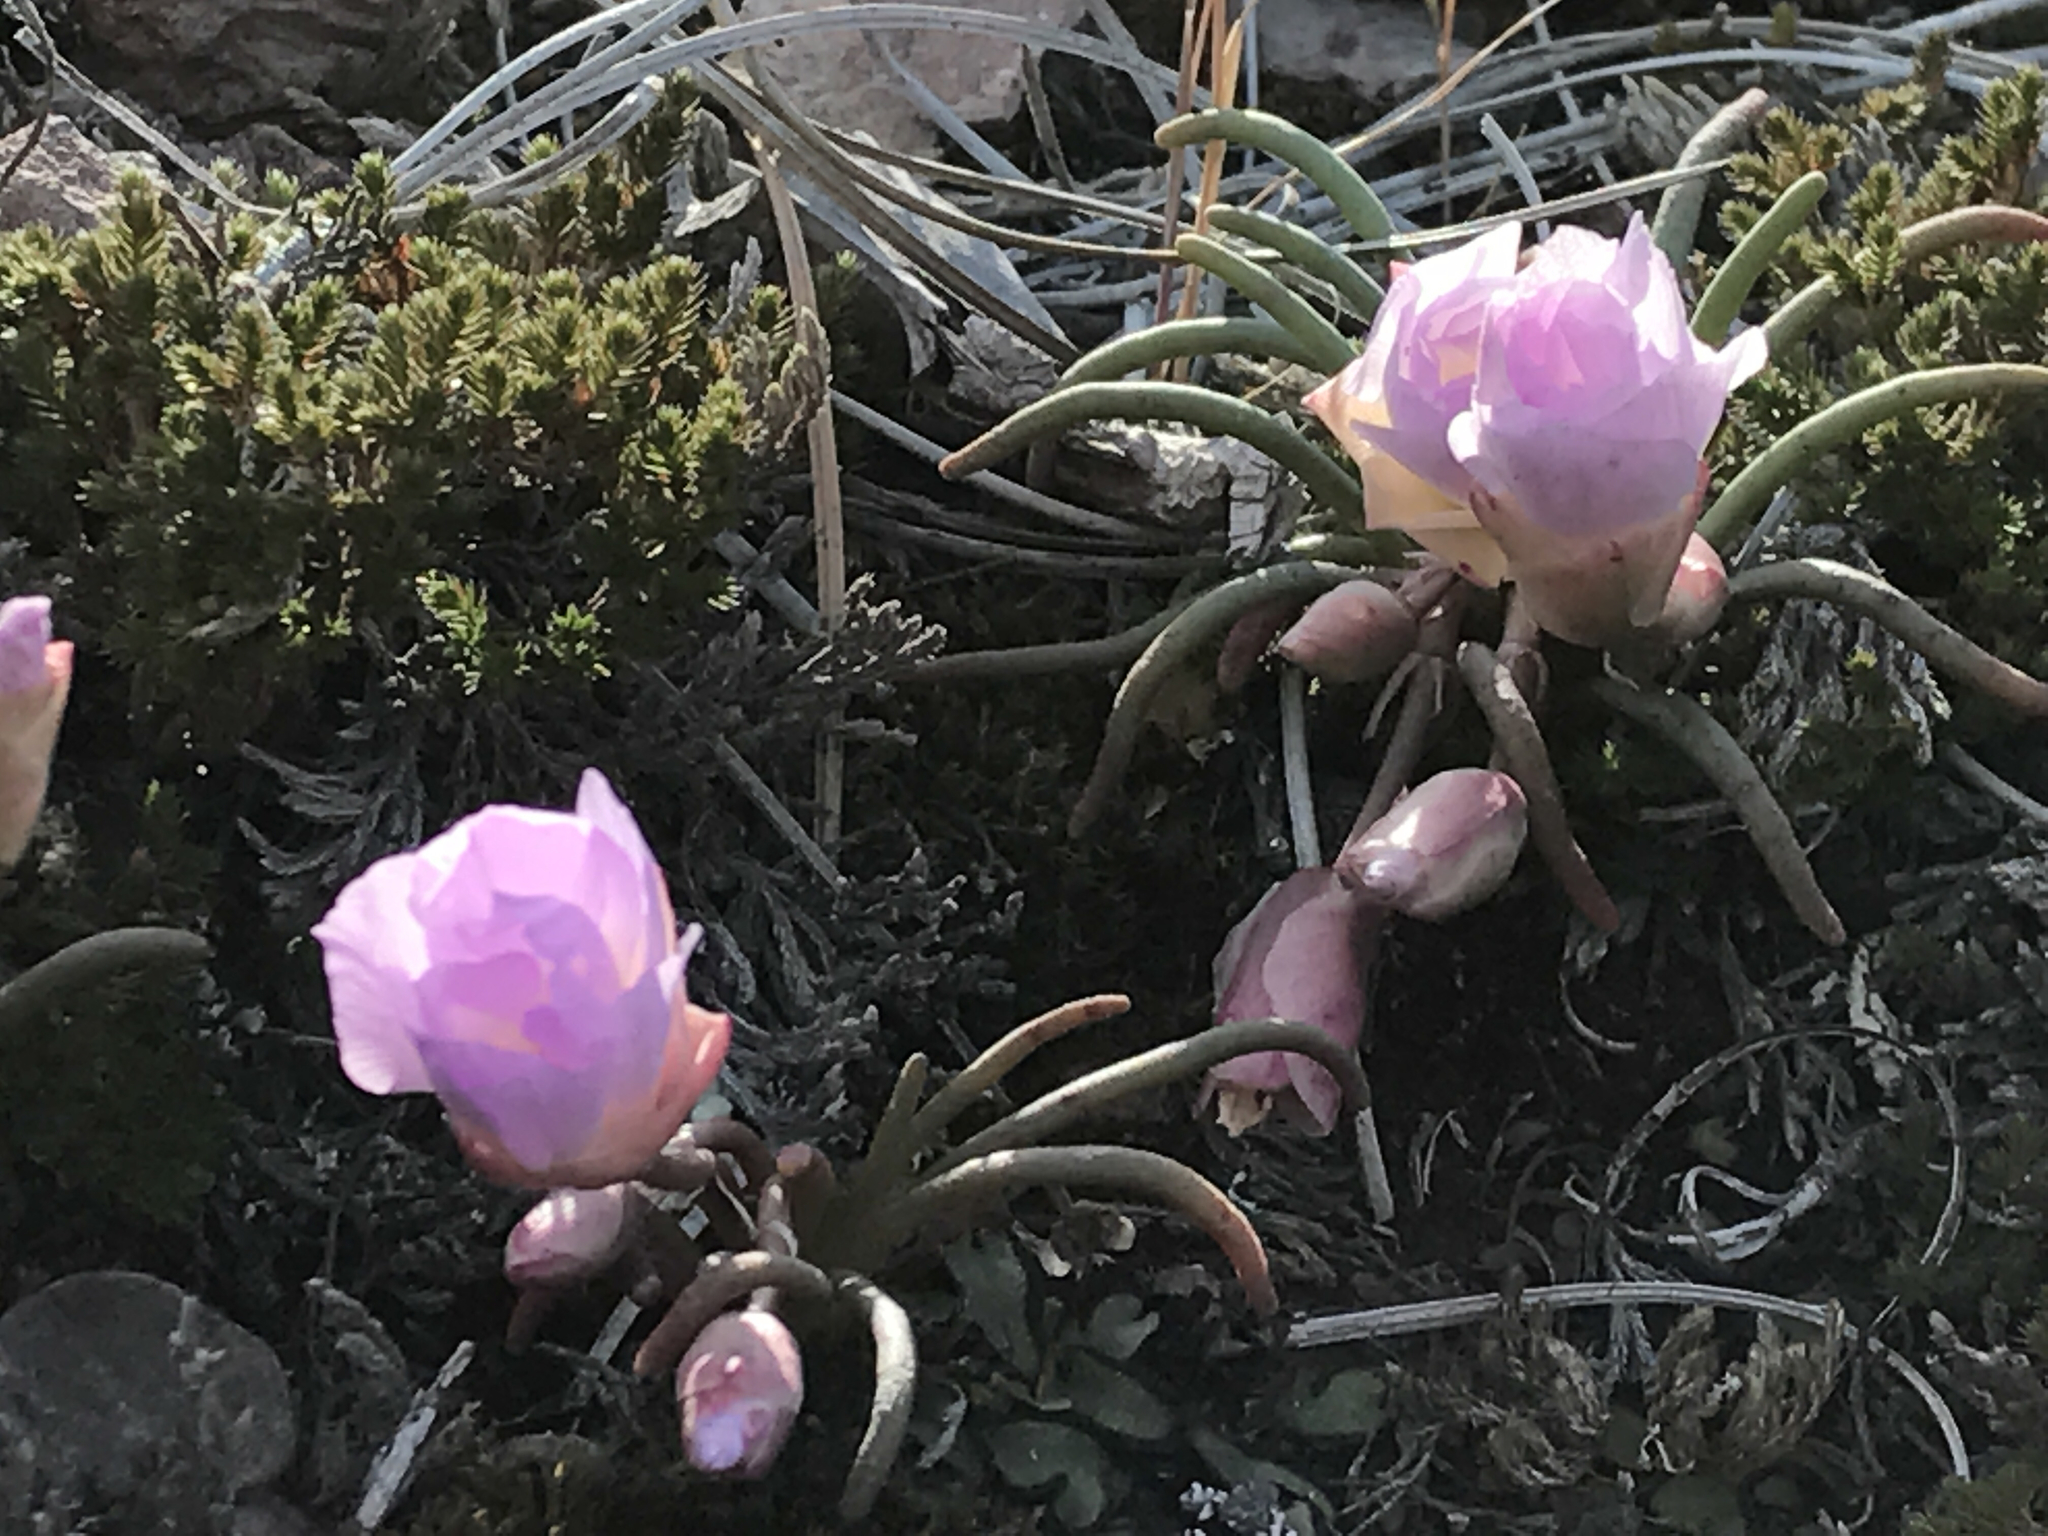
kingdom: Plantae
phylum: Tracheophyta
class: Magnoliopsida
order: Caryophyllales
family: Montiaceae
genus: Lewisia
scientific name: Lewisia rediviva
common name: Bitter-root
